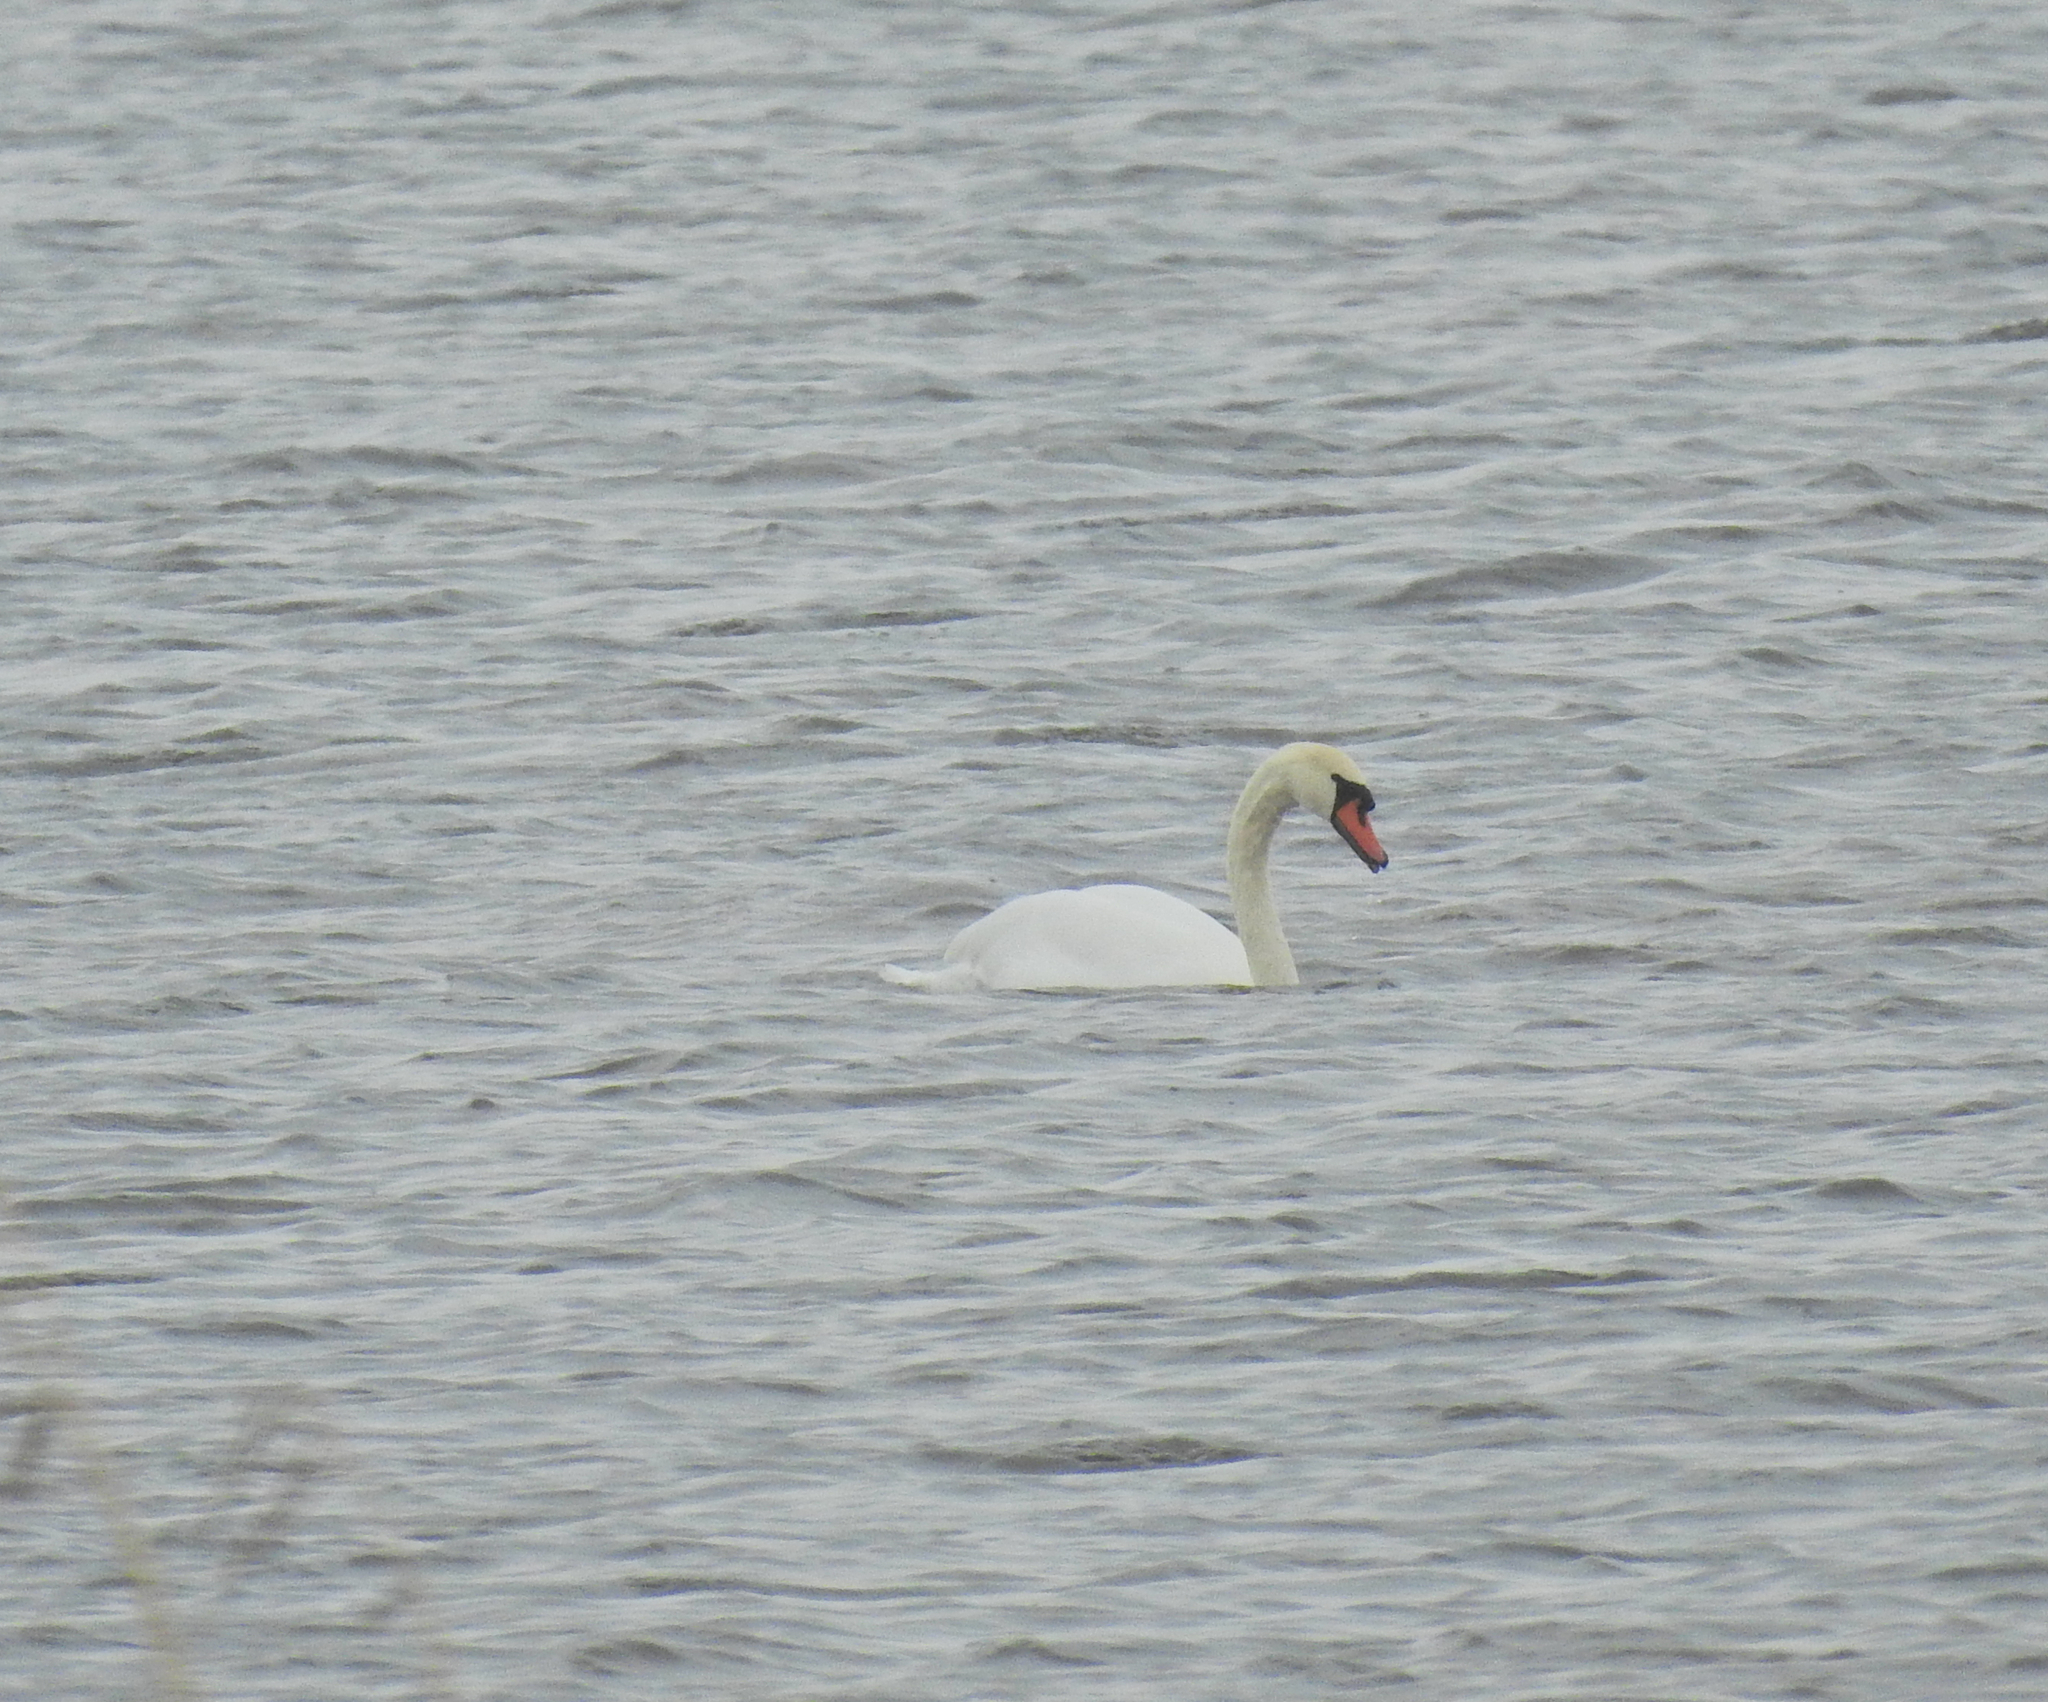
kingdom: Animalia
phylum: Chordata
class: Aves
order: Anseriformes
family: Anatidae
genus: Cygnus
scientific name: Cygnus olor
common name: Mute swan
